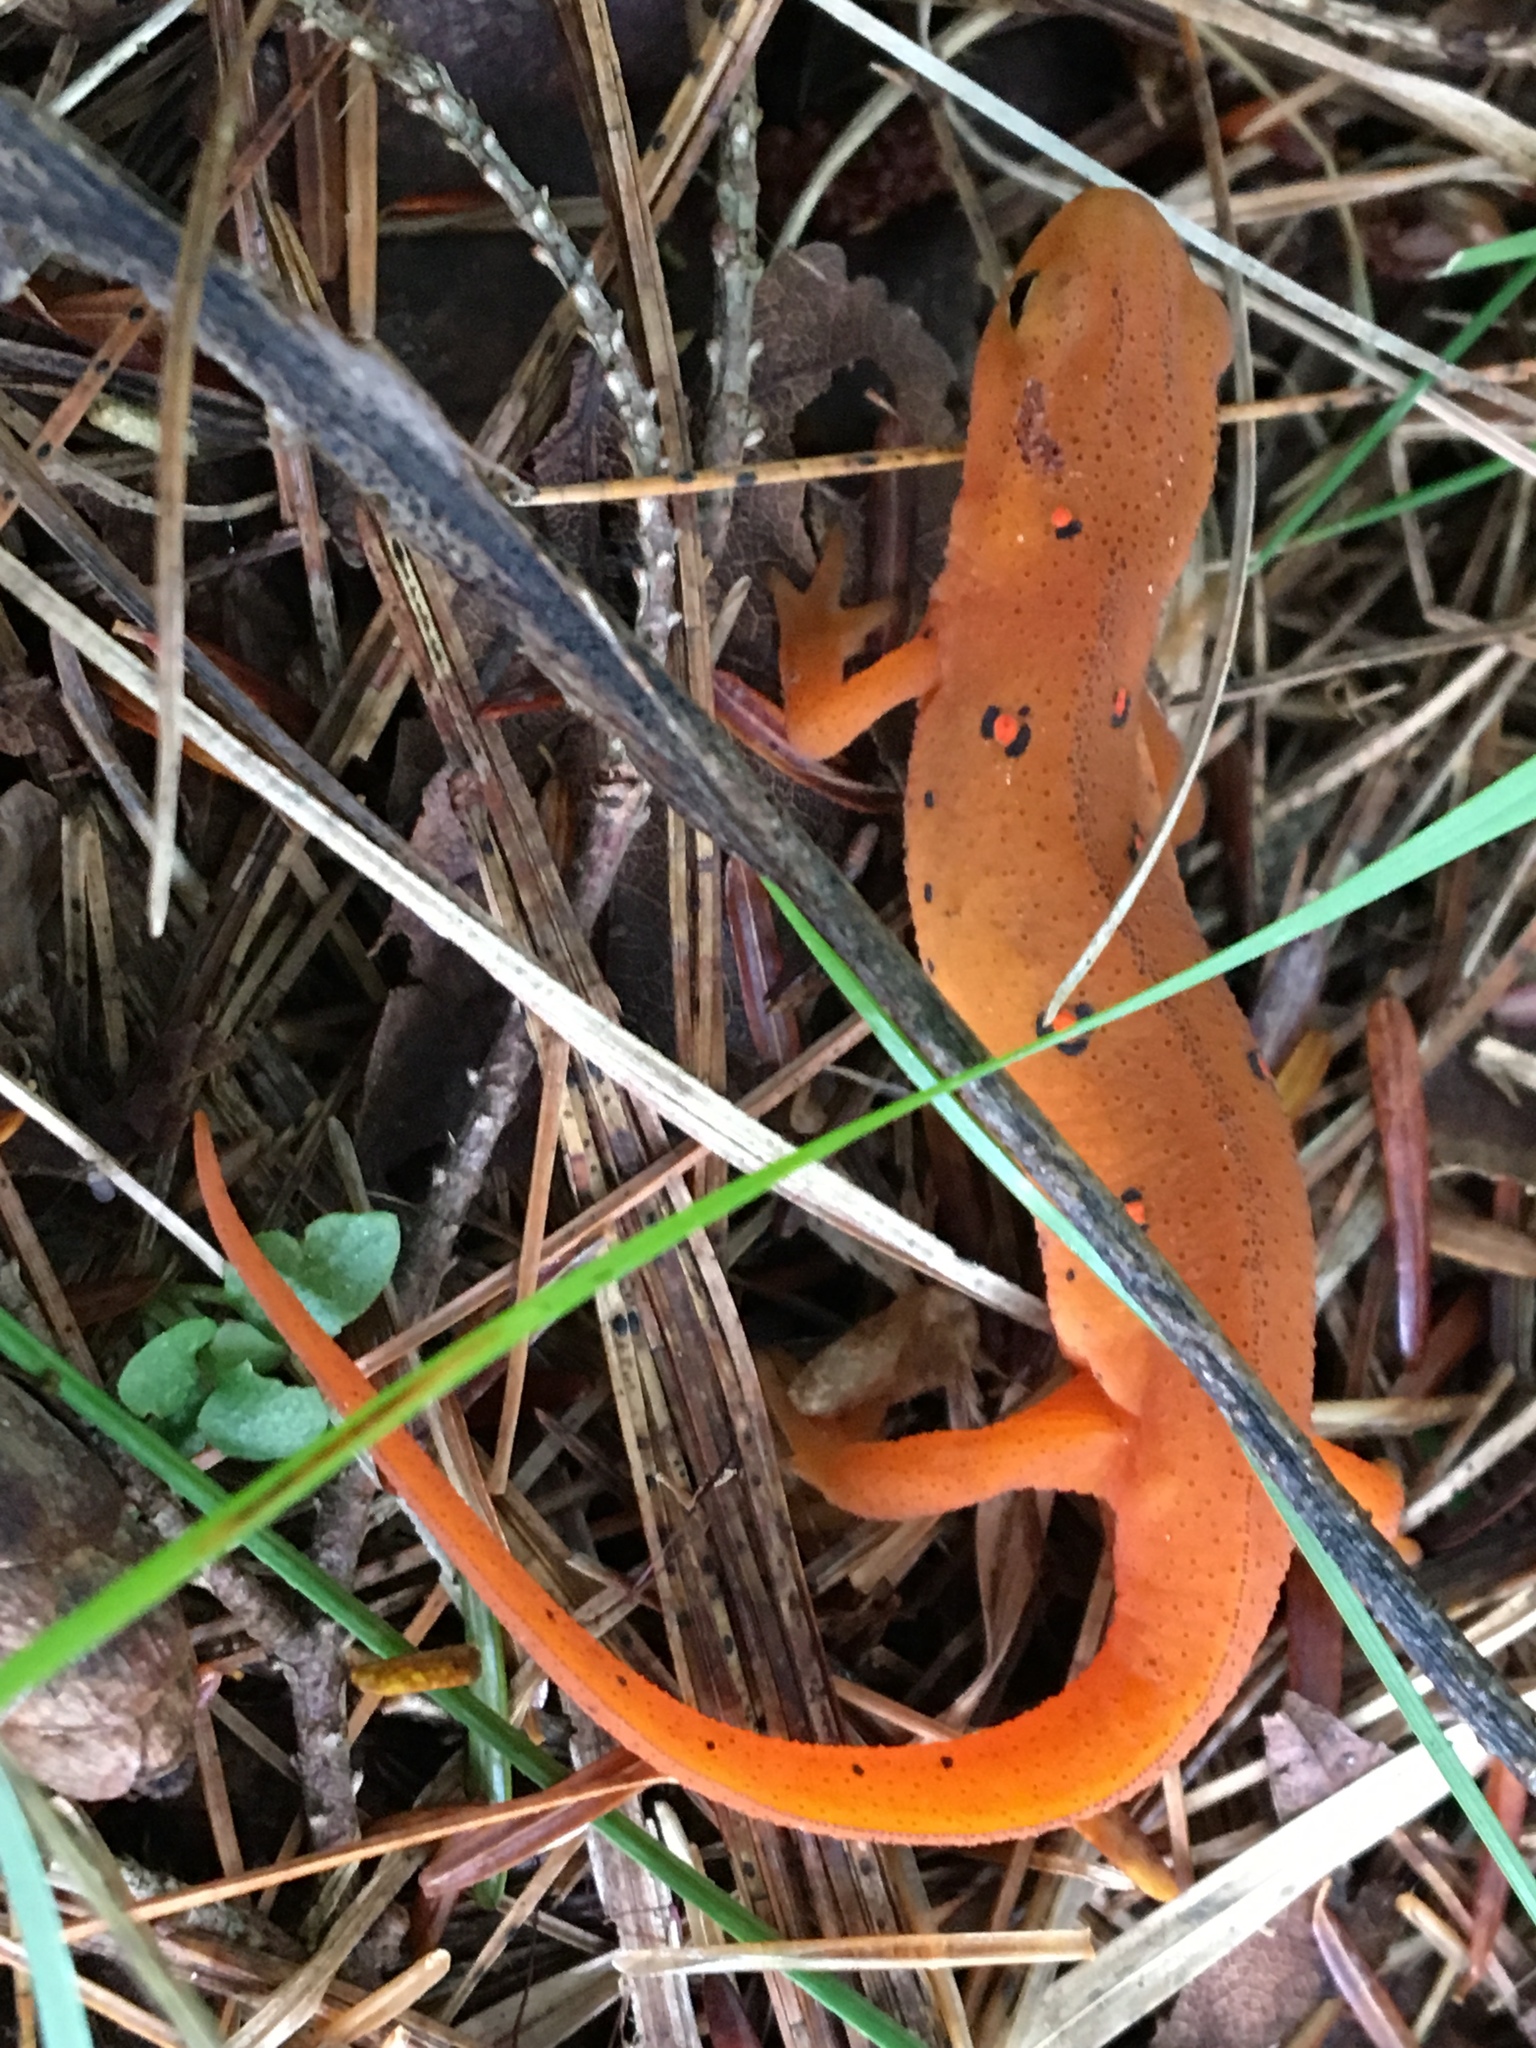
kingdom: Animalia
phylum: Chordata
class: Amphibia
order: Caudata
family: Salamandridae
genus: Notophthalmus
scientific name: Notophthalmus viridescens
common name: Eastern newt
